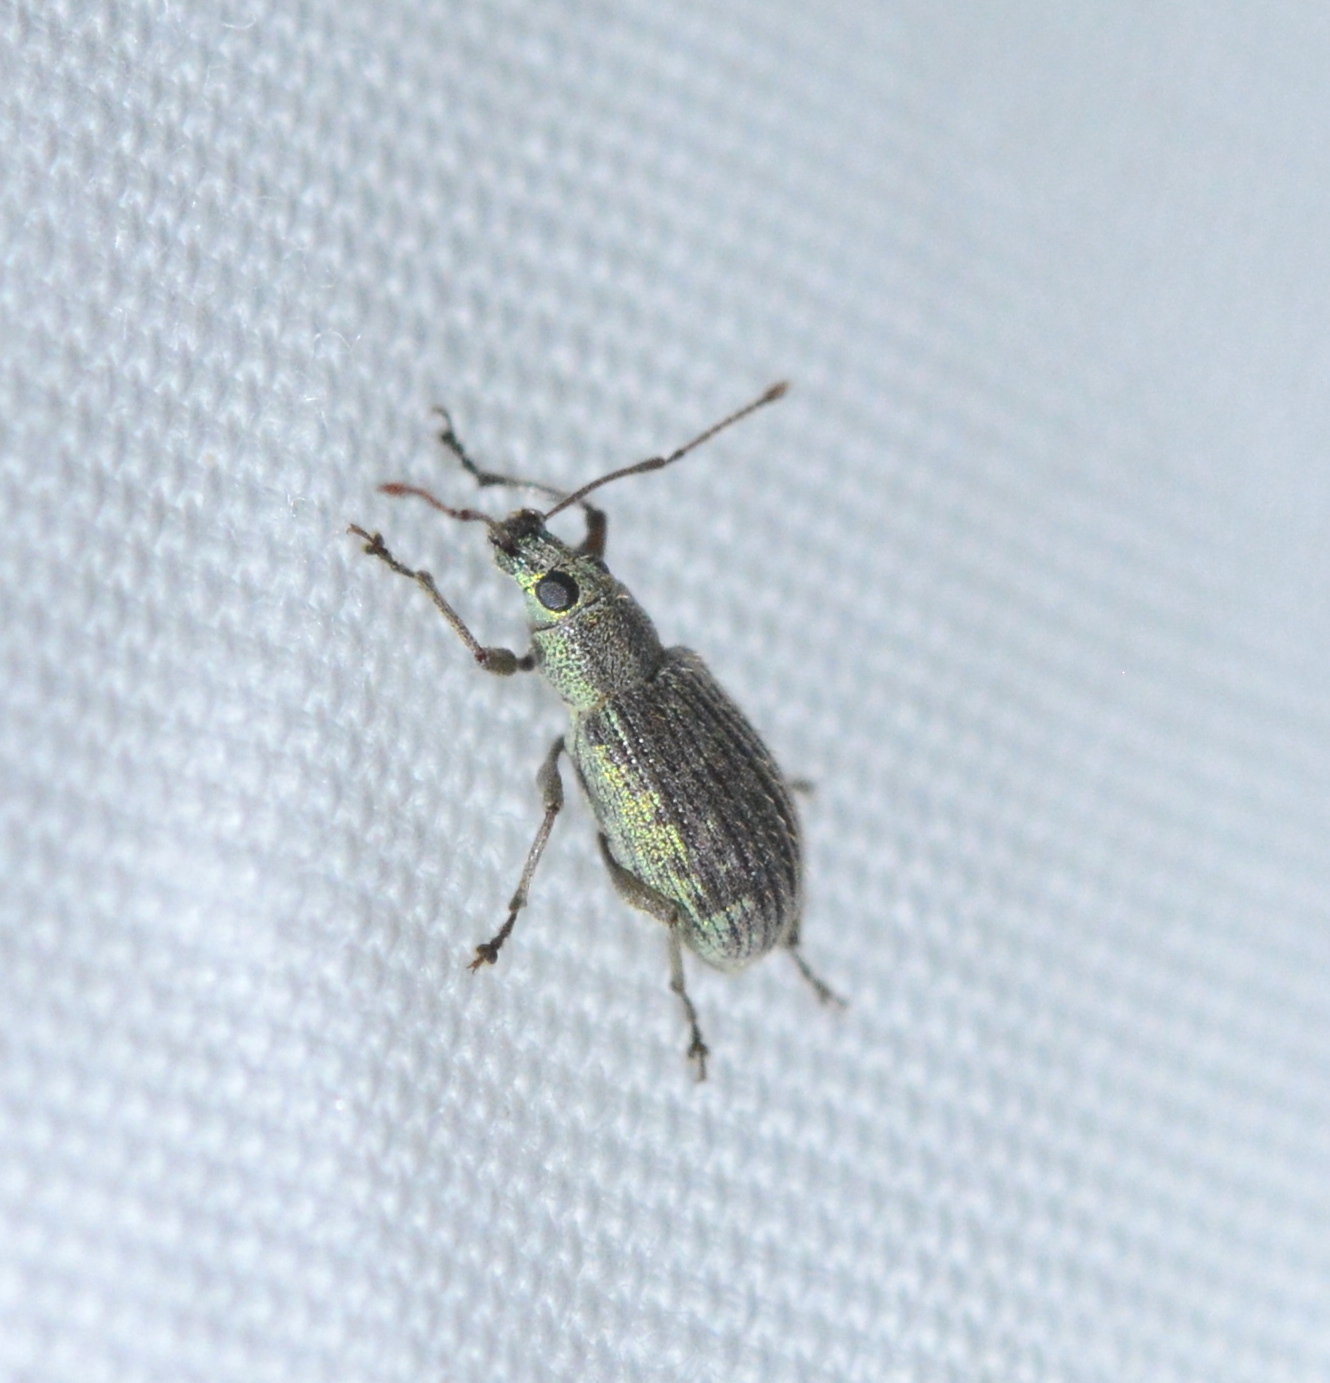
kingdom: Animalia
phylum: Arthropoda
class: Insecta
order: Coleoptera
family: Curculionidae
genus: Cyrtepistomus
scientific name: Cyrtepistomus castaneus
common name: Weevil
